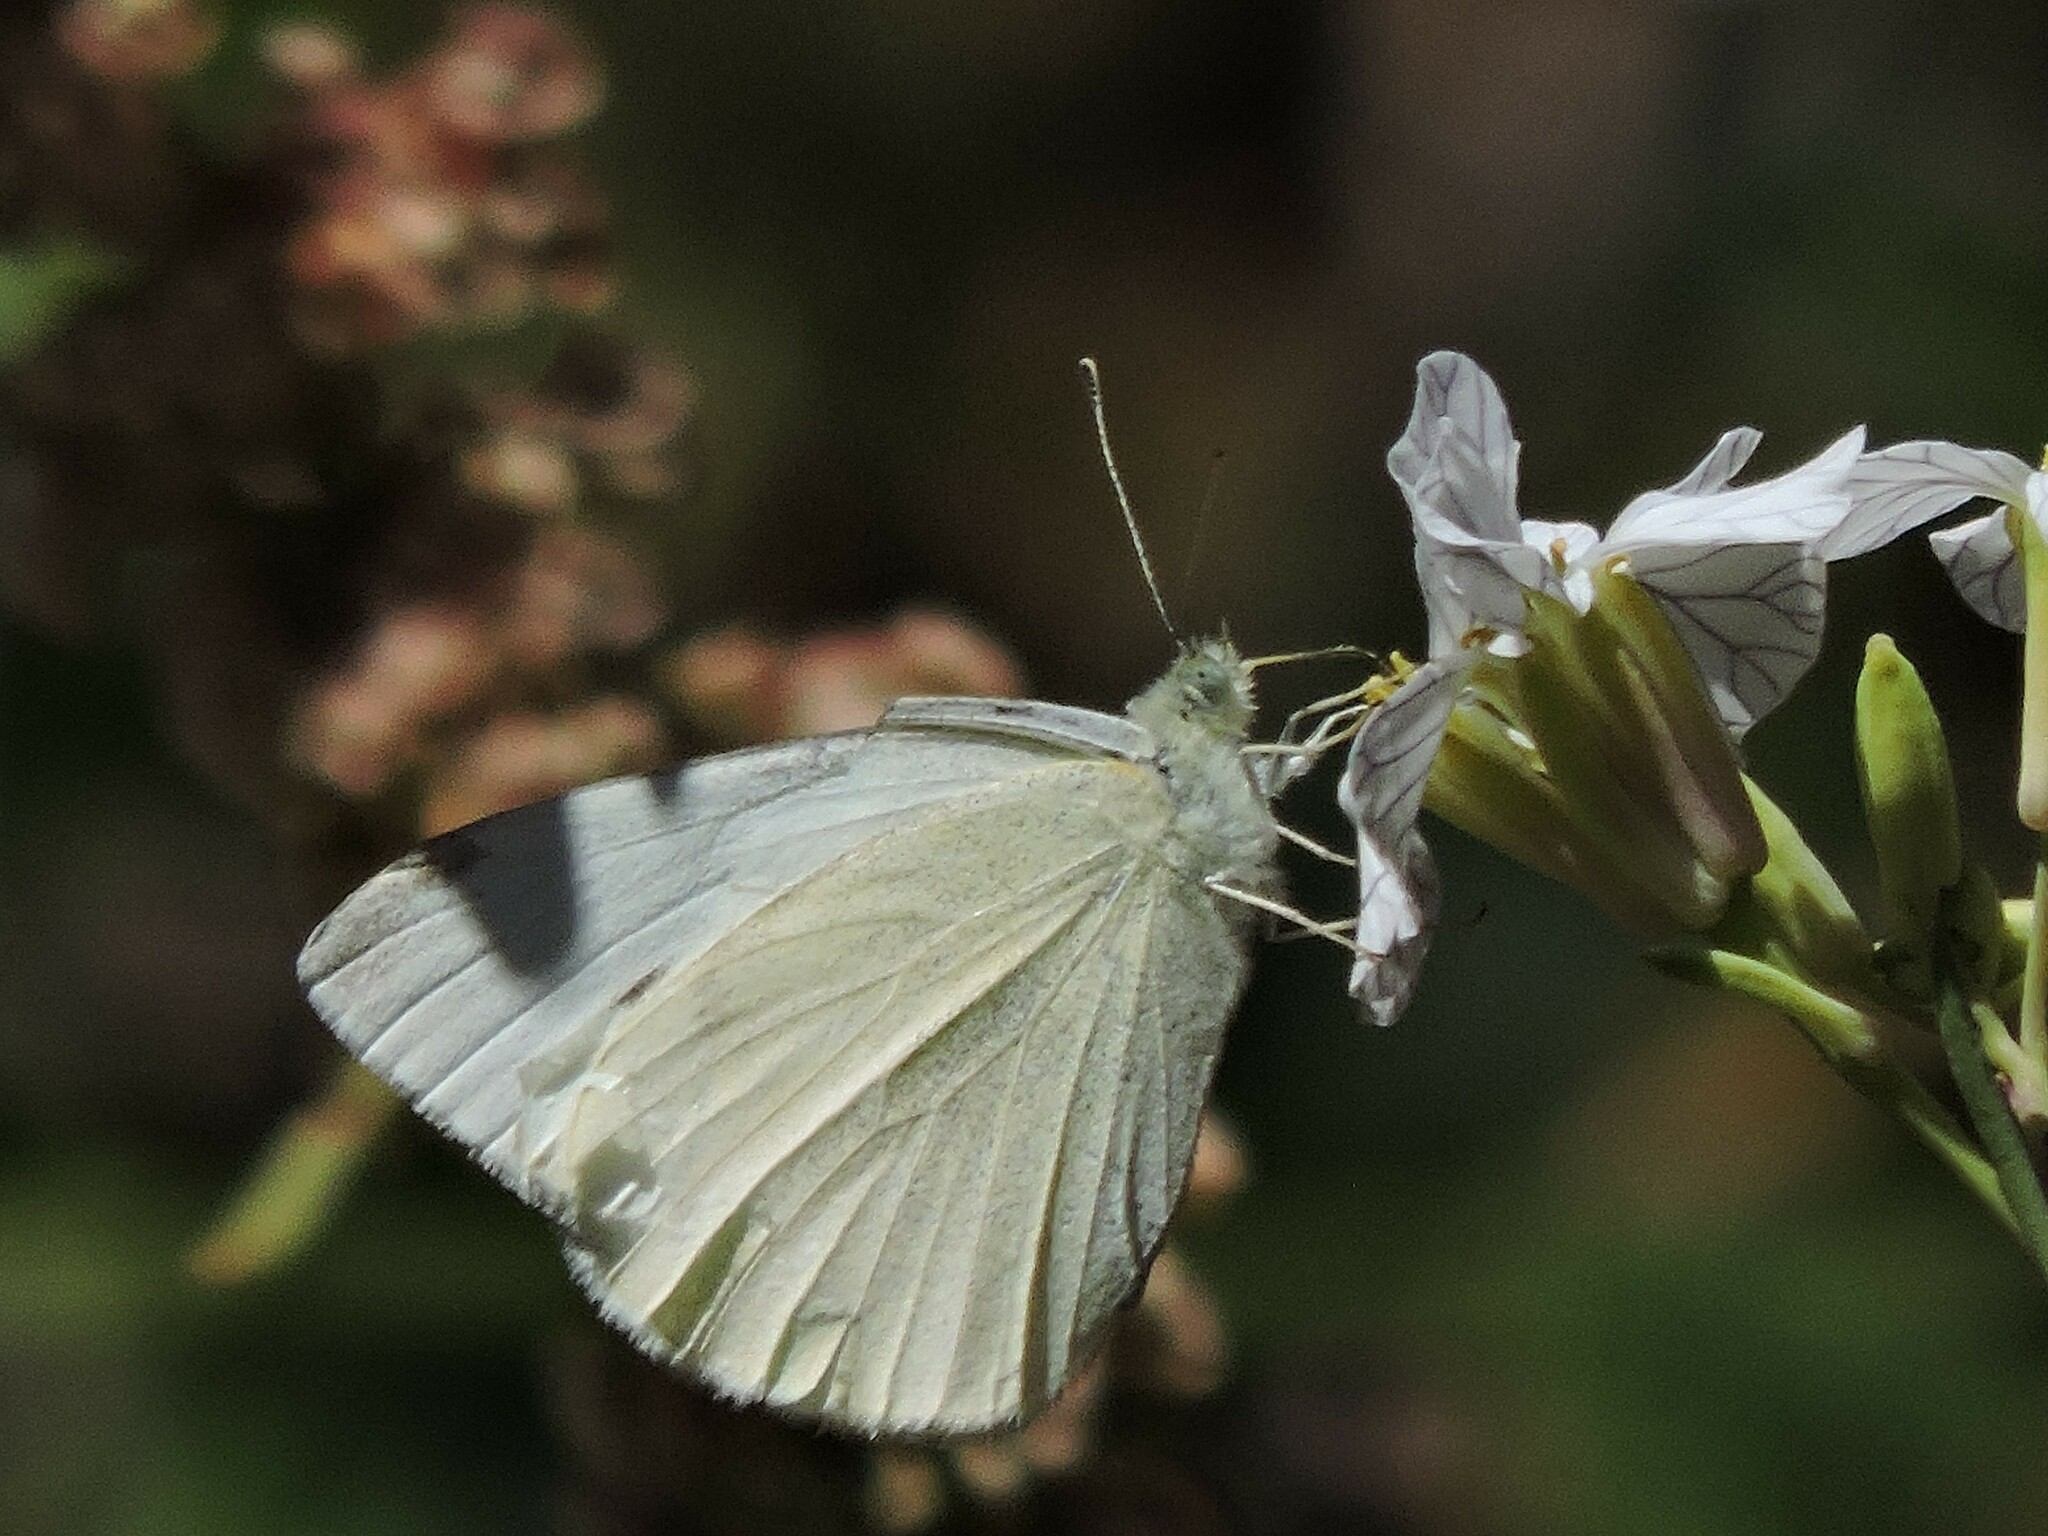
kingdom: Animalia
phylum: Arthropoda
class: Insecta
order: Lepidoptera
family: Pieridae
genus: Pieris
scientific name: Pieris rapae
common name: Small white
